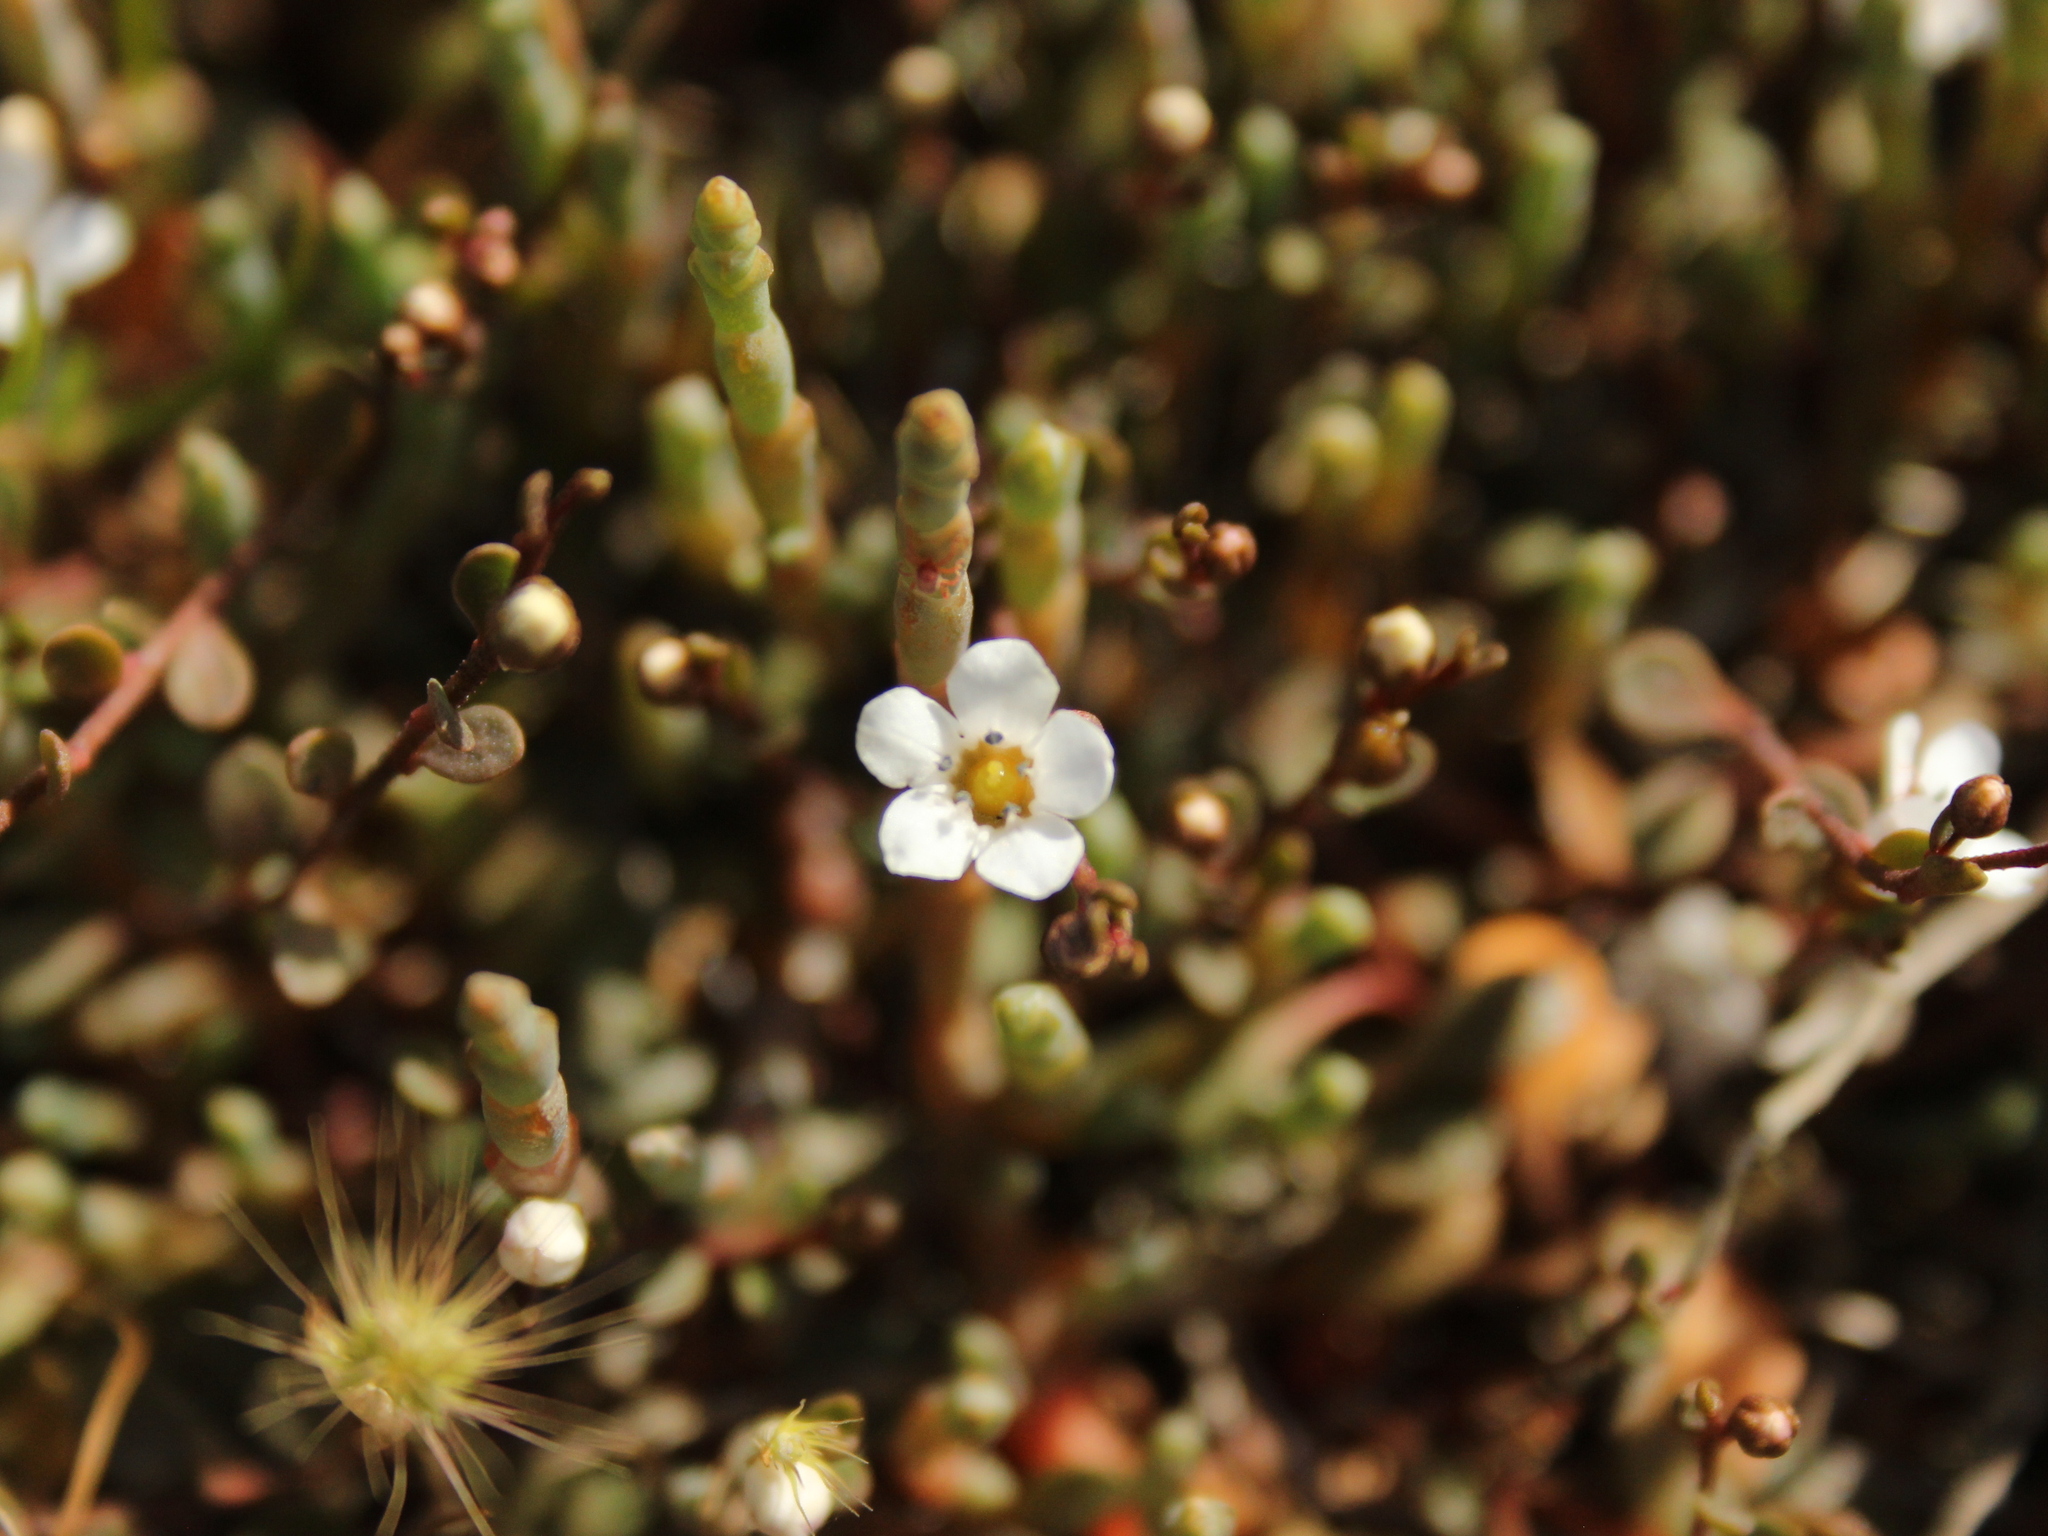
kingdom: Plantae
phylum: Tracheophyta
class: Magnoliopsida
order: Ericales
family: Primulaceae
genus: Samolus
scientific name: Samolus repens
